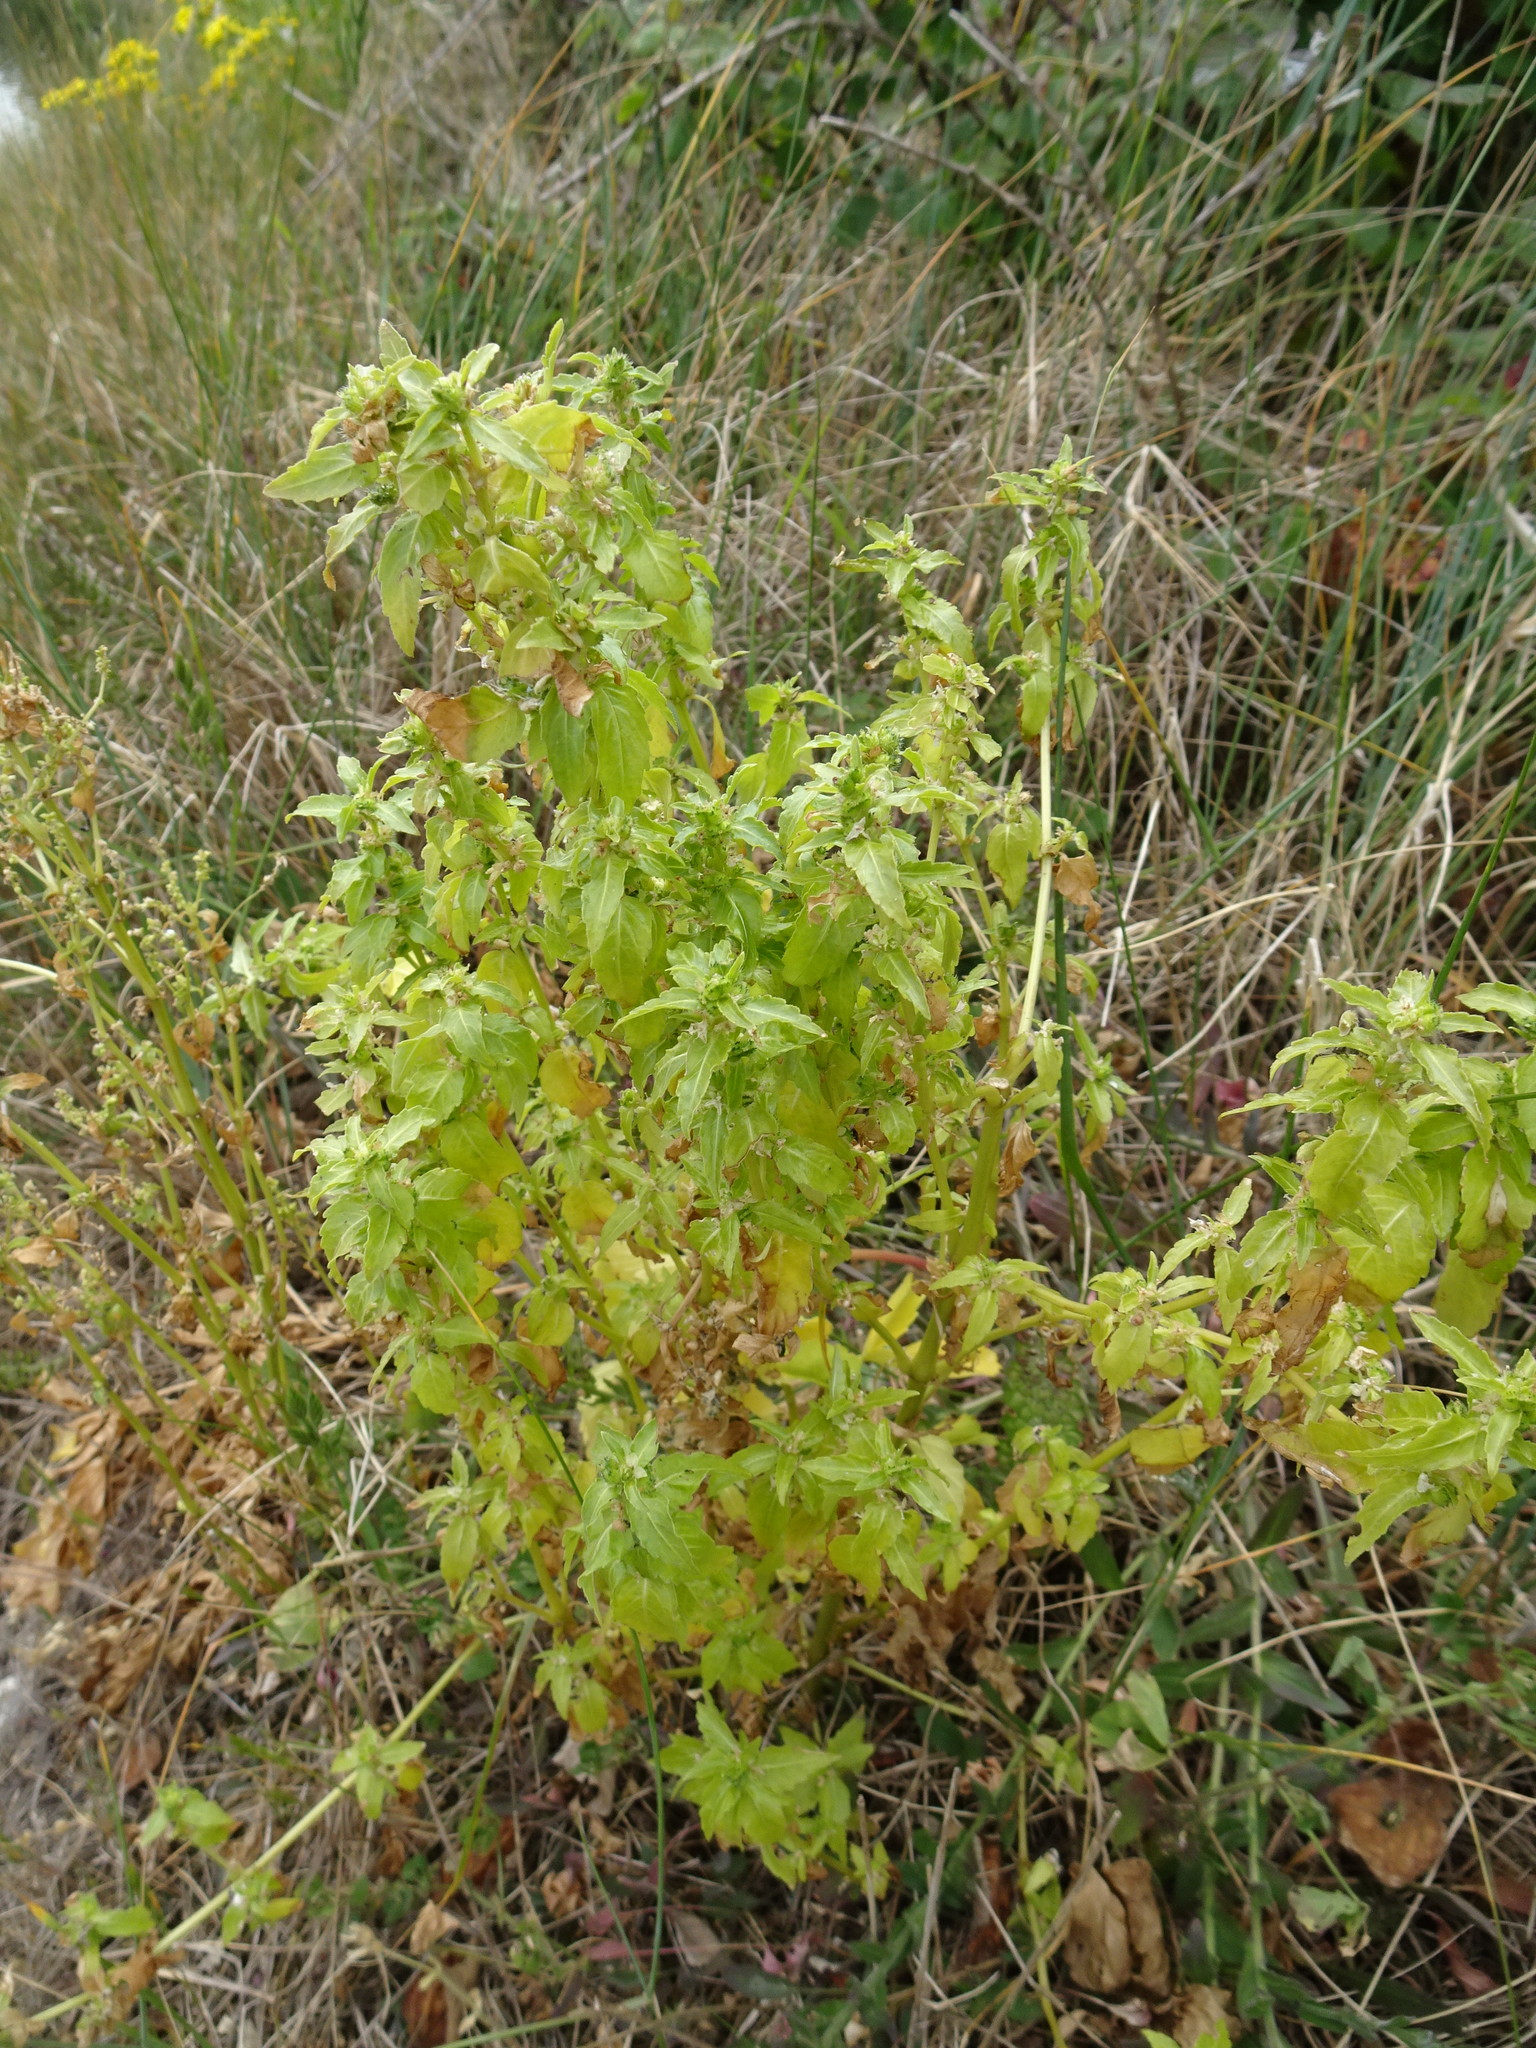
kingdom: Plantae
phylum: Tracheophyta
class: Magnoliopsida
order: Malpighiales
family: Euphorbiaceae
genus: Mercurialis
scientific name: Mercurialis annua
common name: Annual mercury
